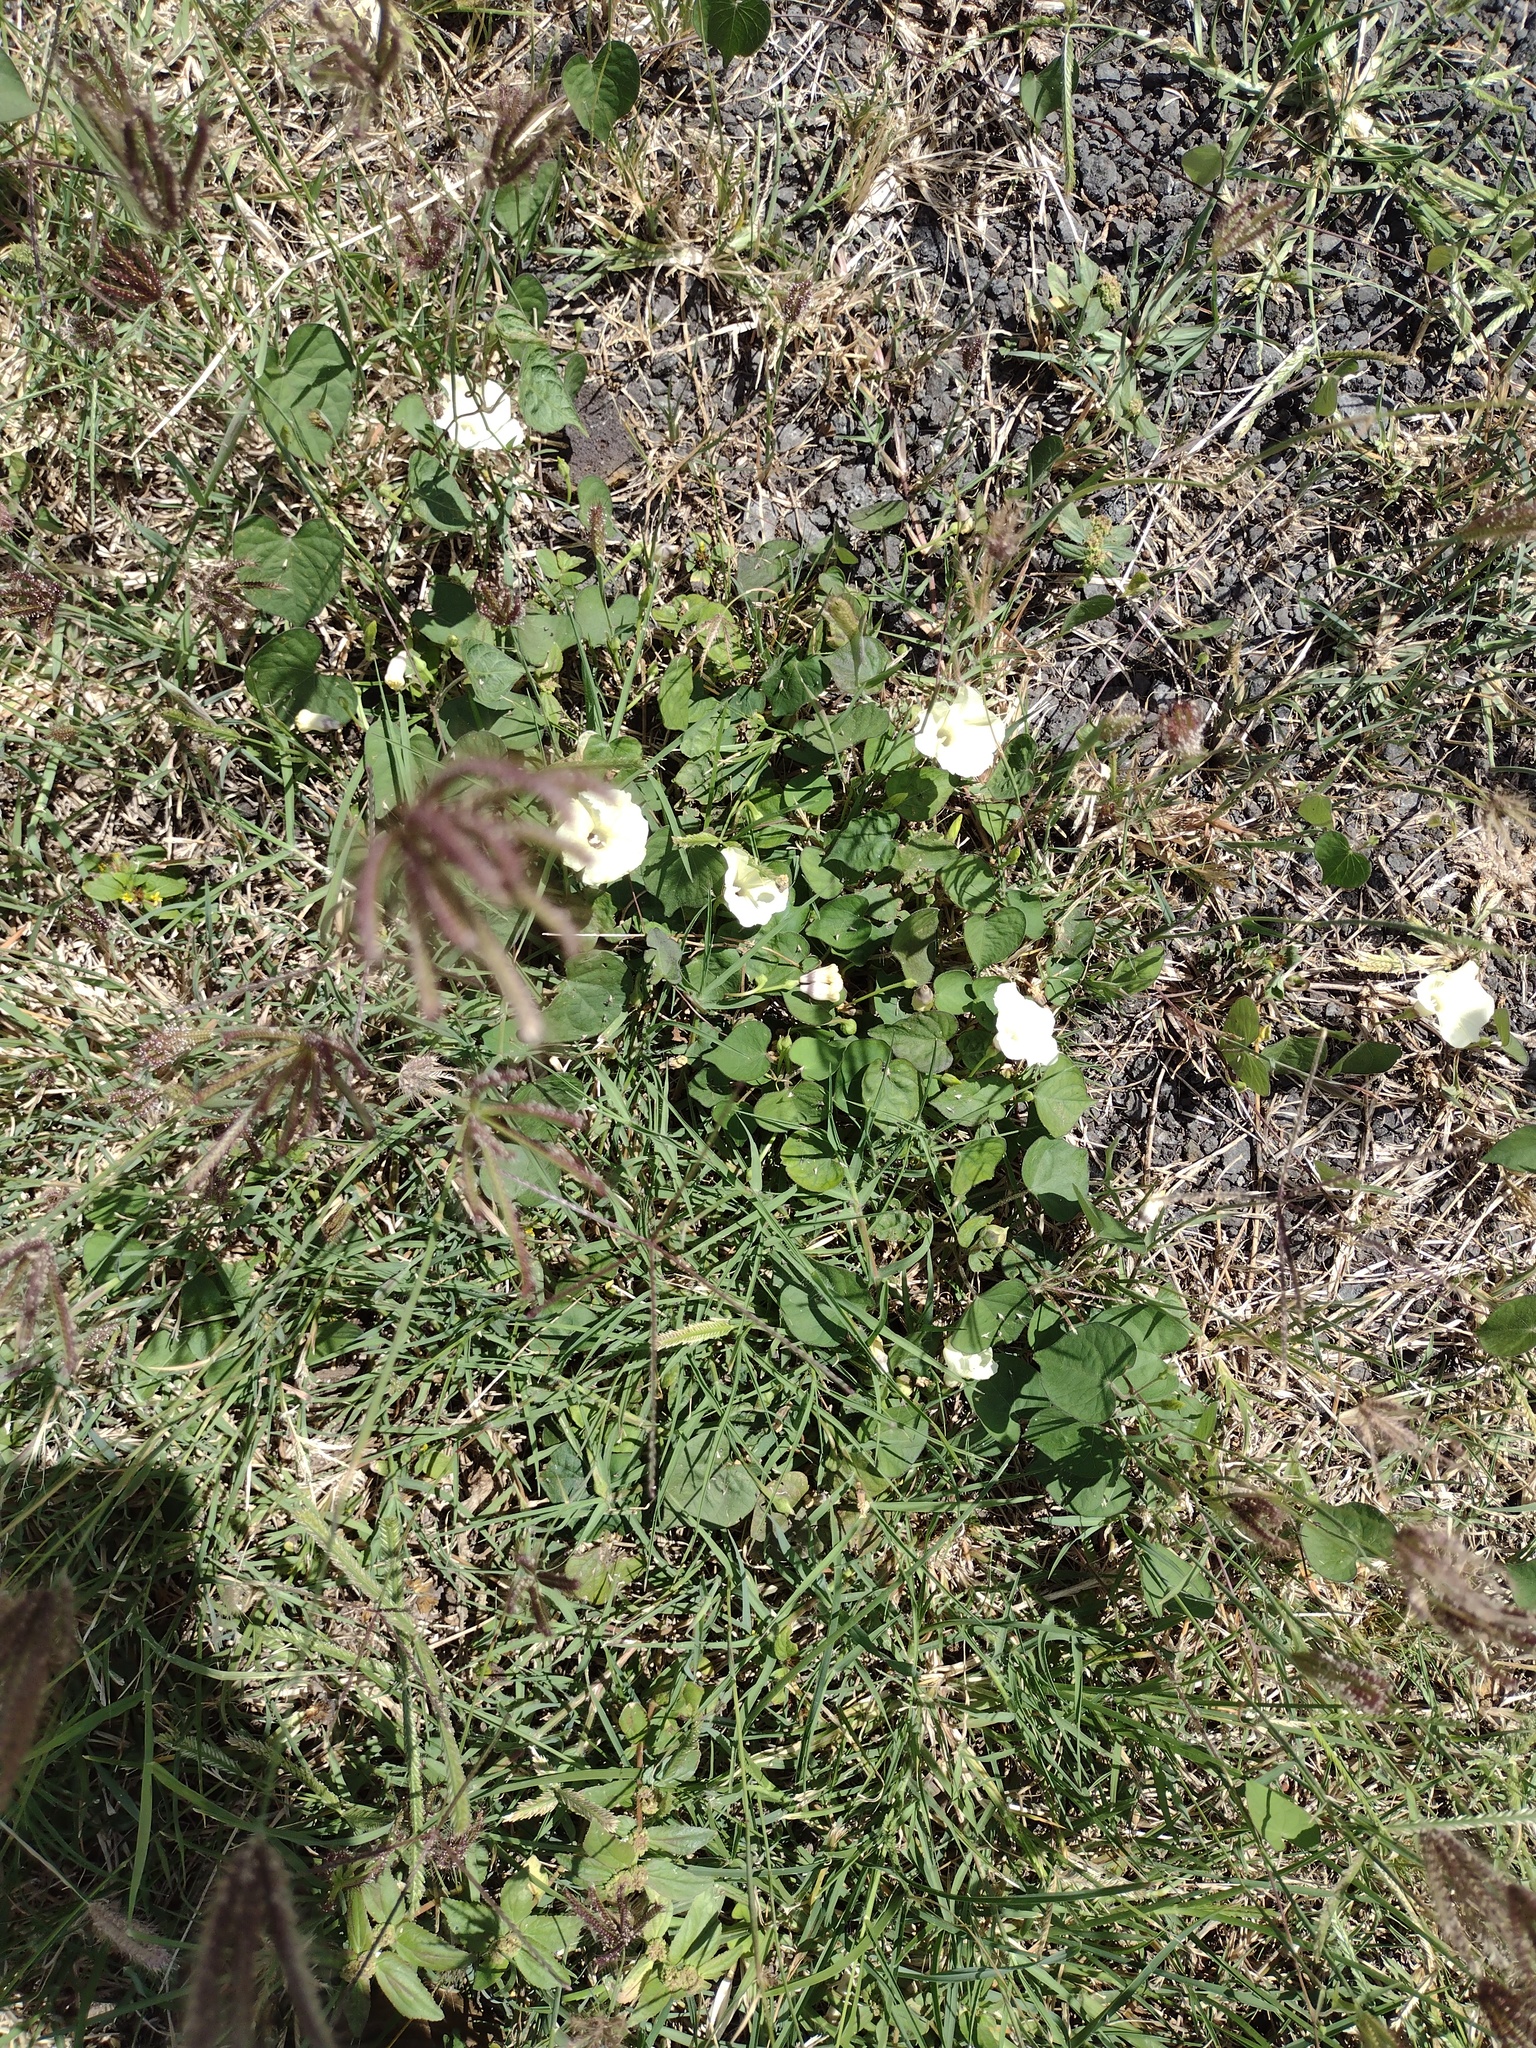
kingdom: Plantae
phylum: Tracheophyta
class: Magnoliopsida
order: Solanales
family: Convolvulaceae
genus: Ipomoea
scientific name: Ipomoea obscura
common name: Obscure morning-glory
